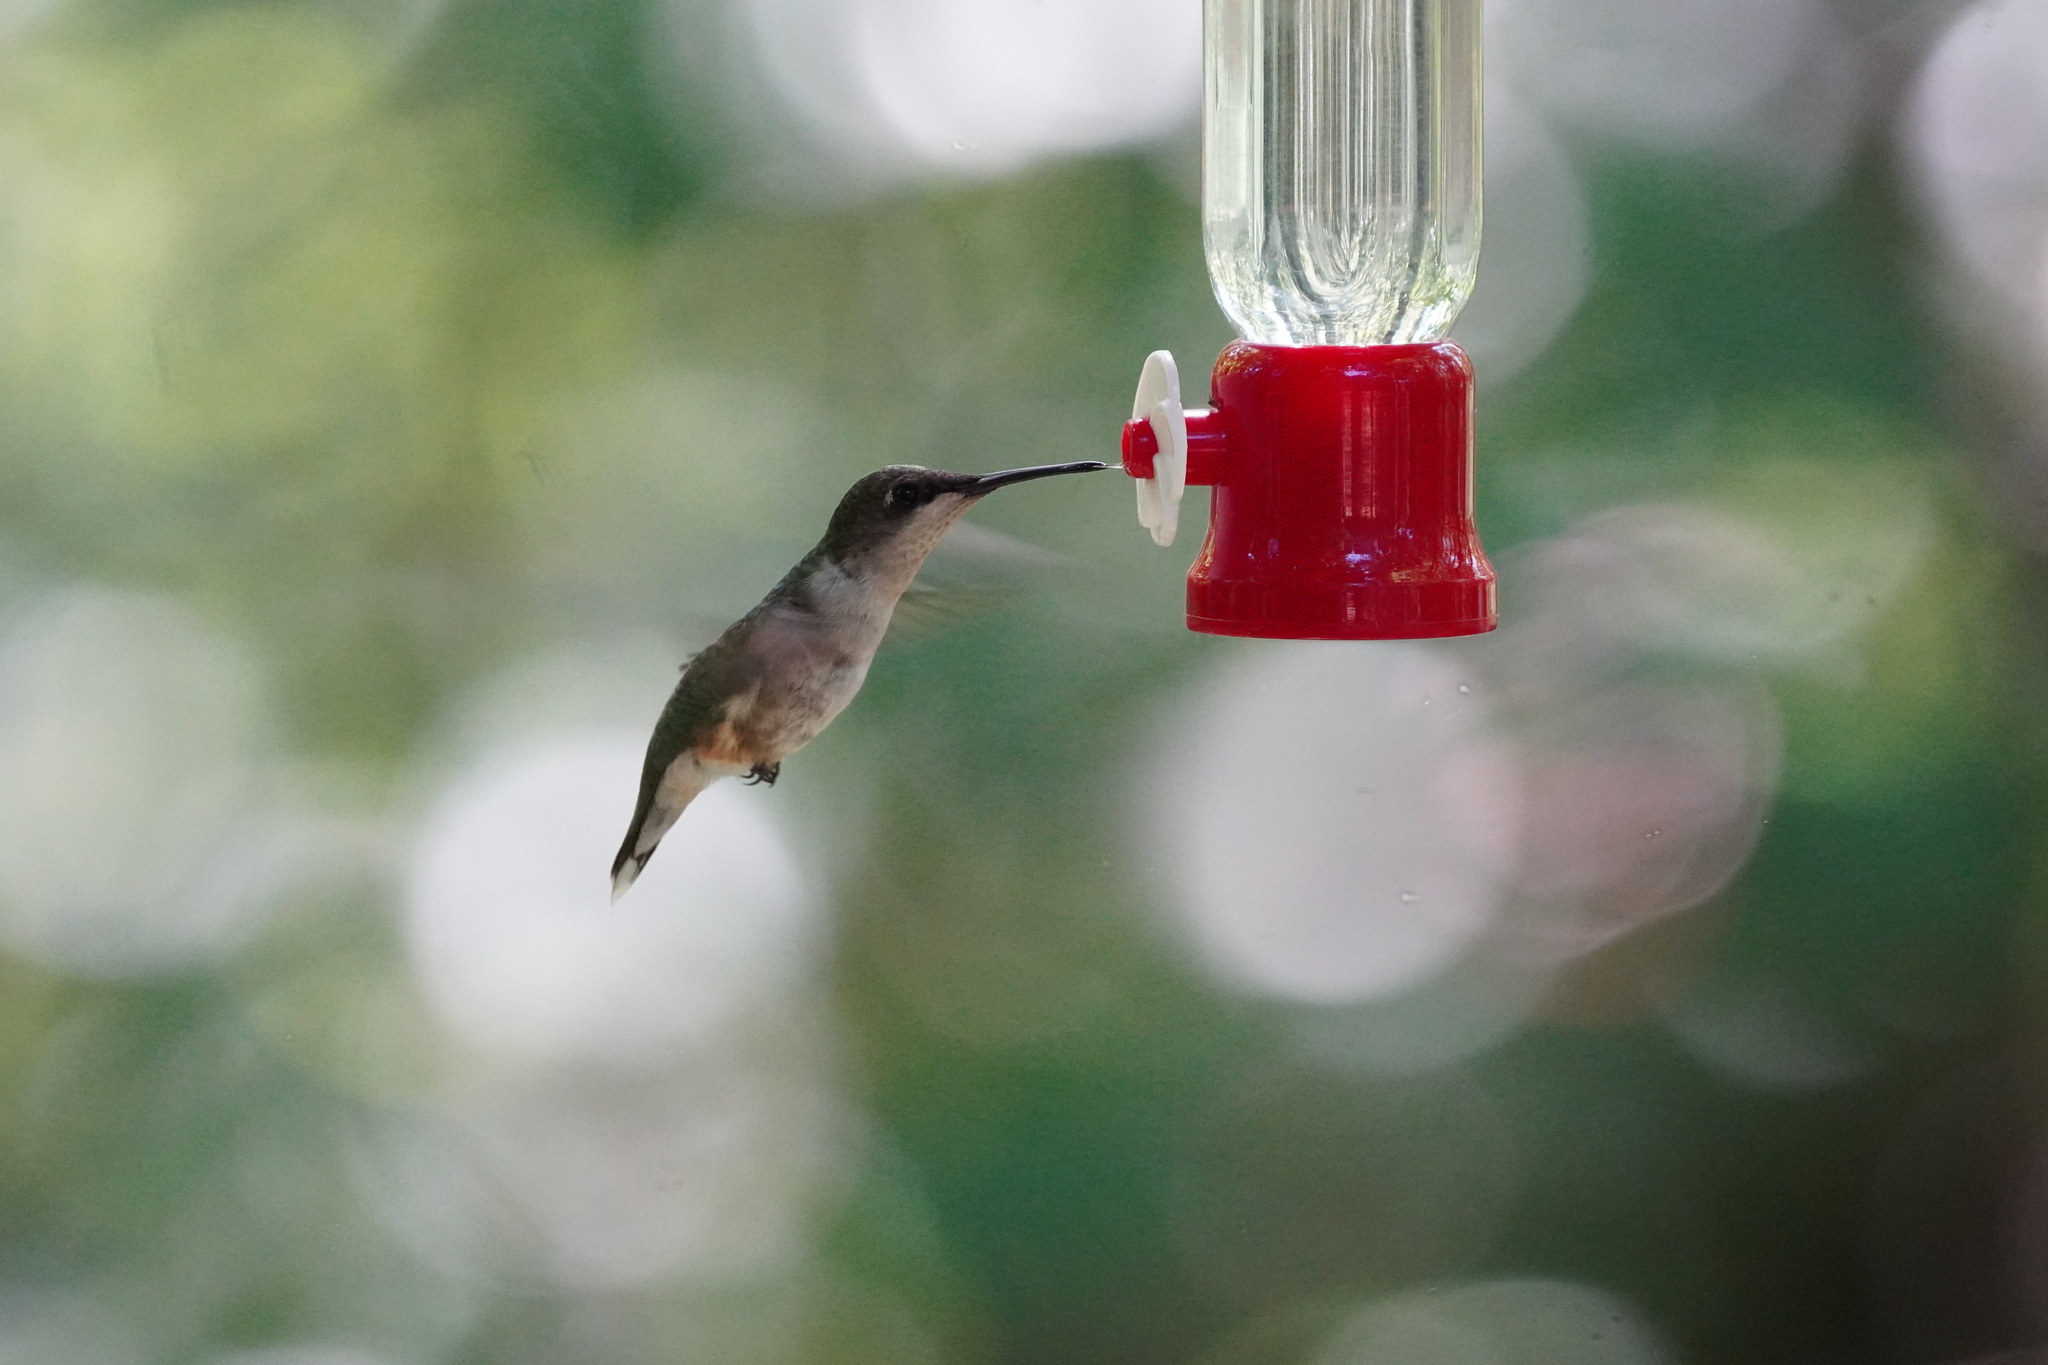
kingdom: Animalia
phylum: Chordata
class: Aves
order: Apodiformes
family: Trochilidae
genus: Archilochus
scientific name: Archilochus colubris
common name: Ruby-throated hummingbird
